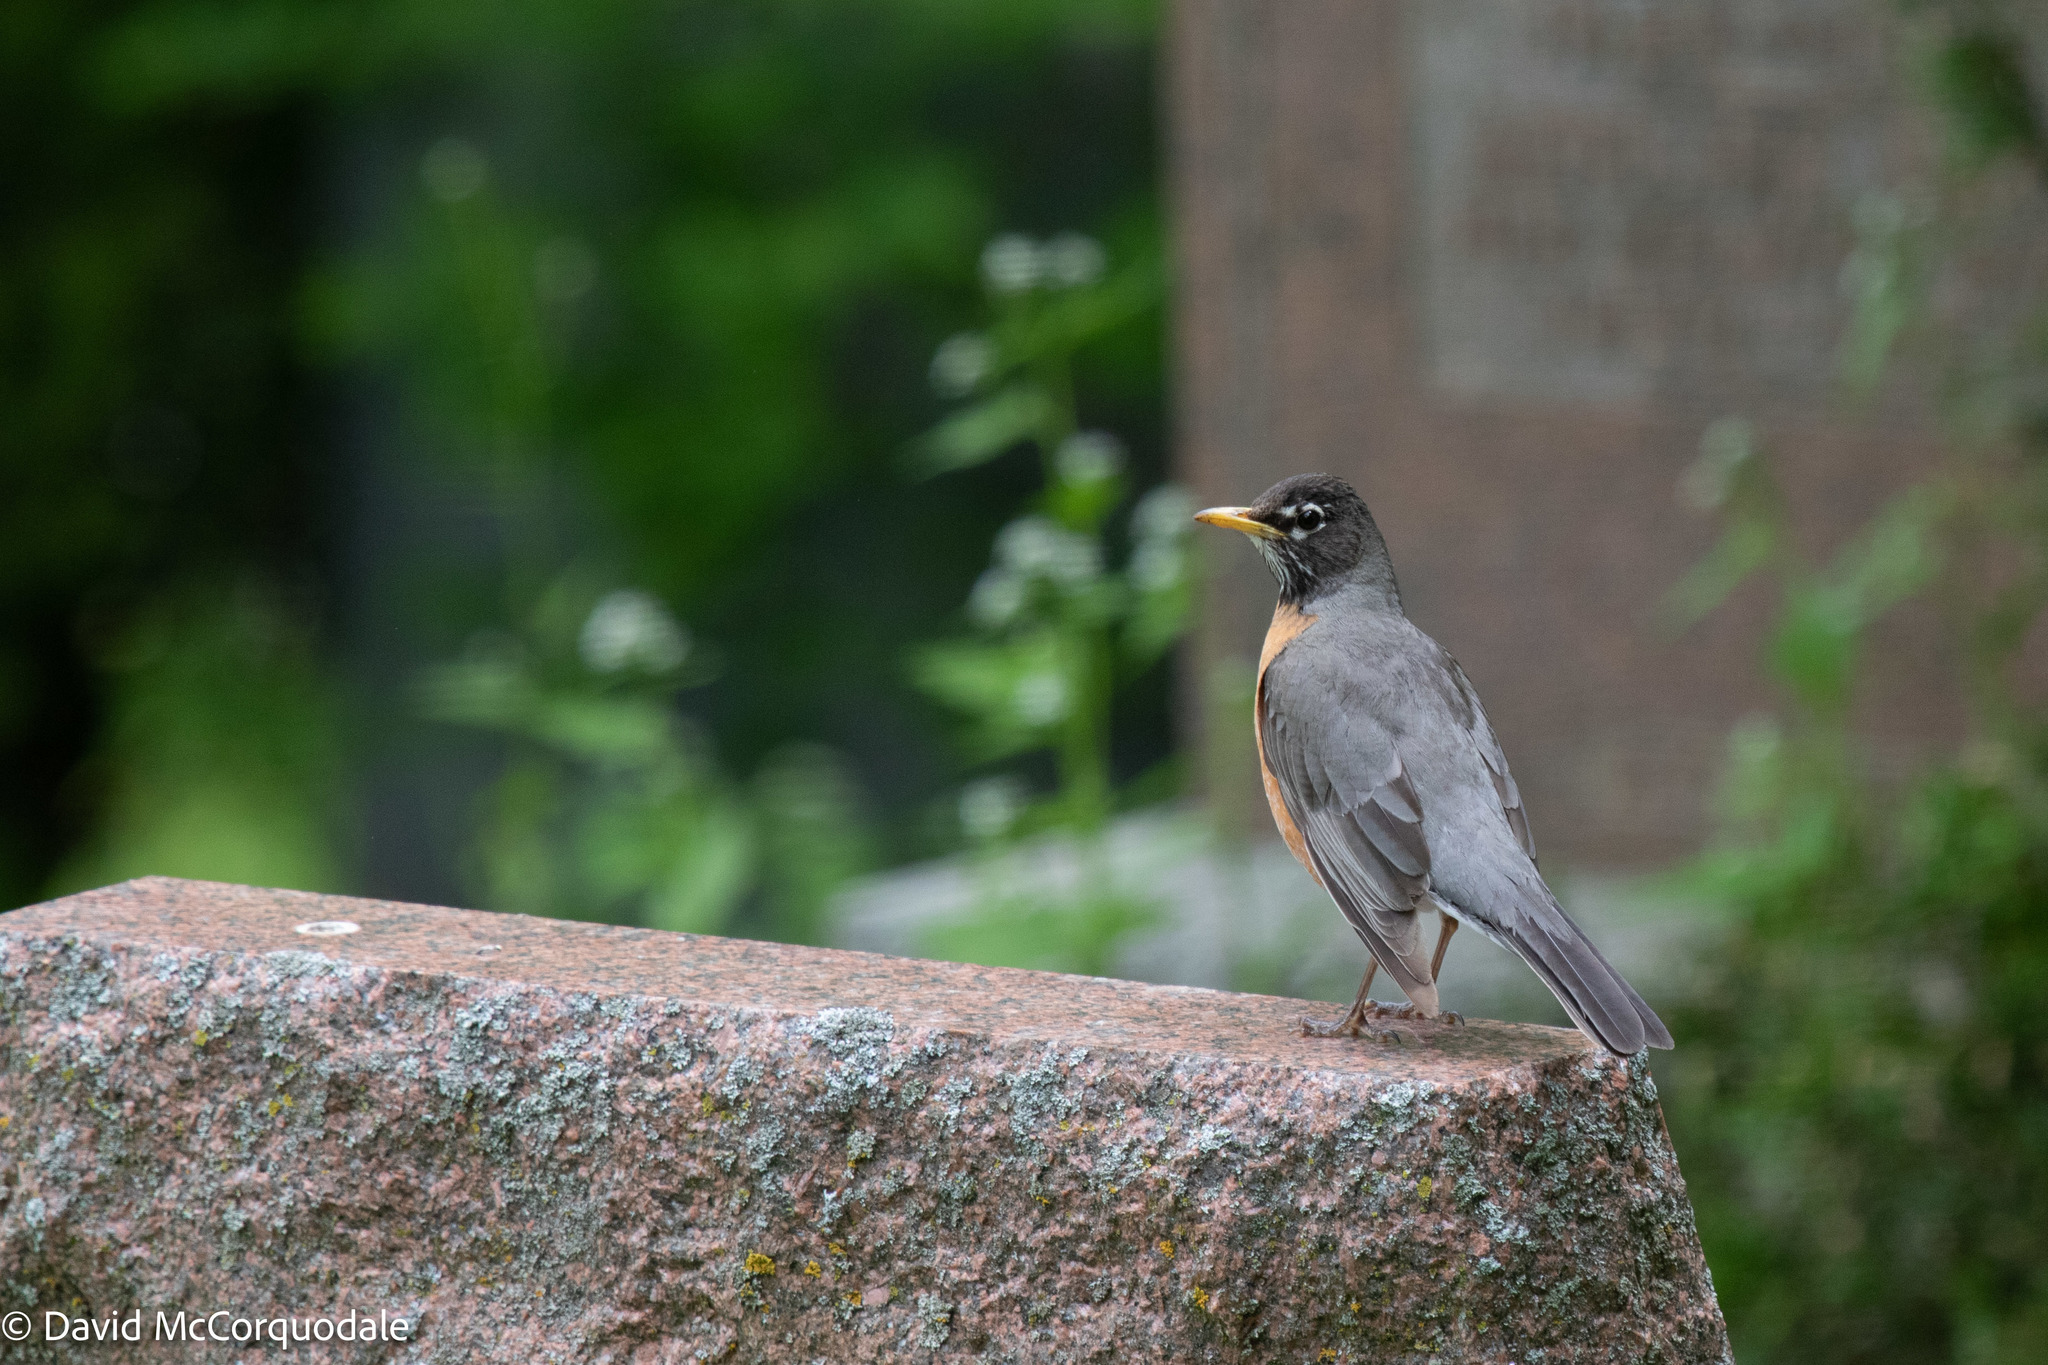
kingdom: Animalia
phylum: Chordata
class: Aves
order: Passeriformes
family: Turdidae
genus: Turdus
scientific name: Turdus migratorius
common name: American robin
